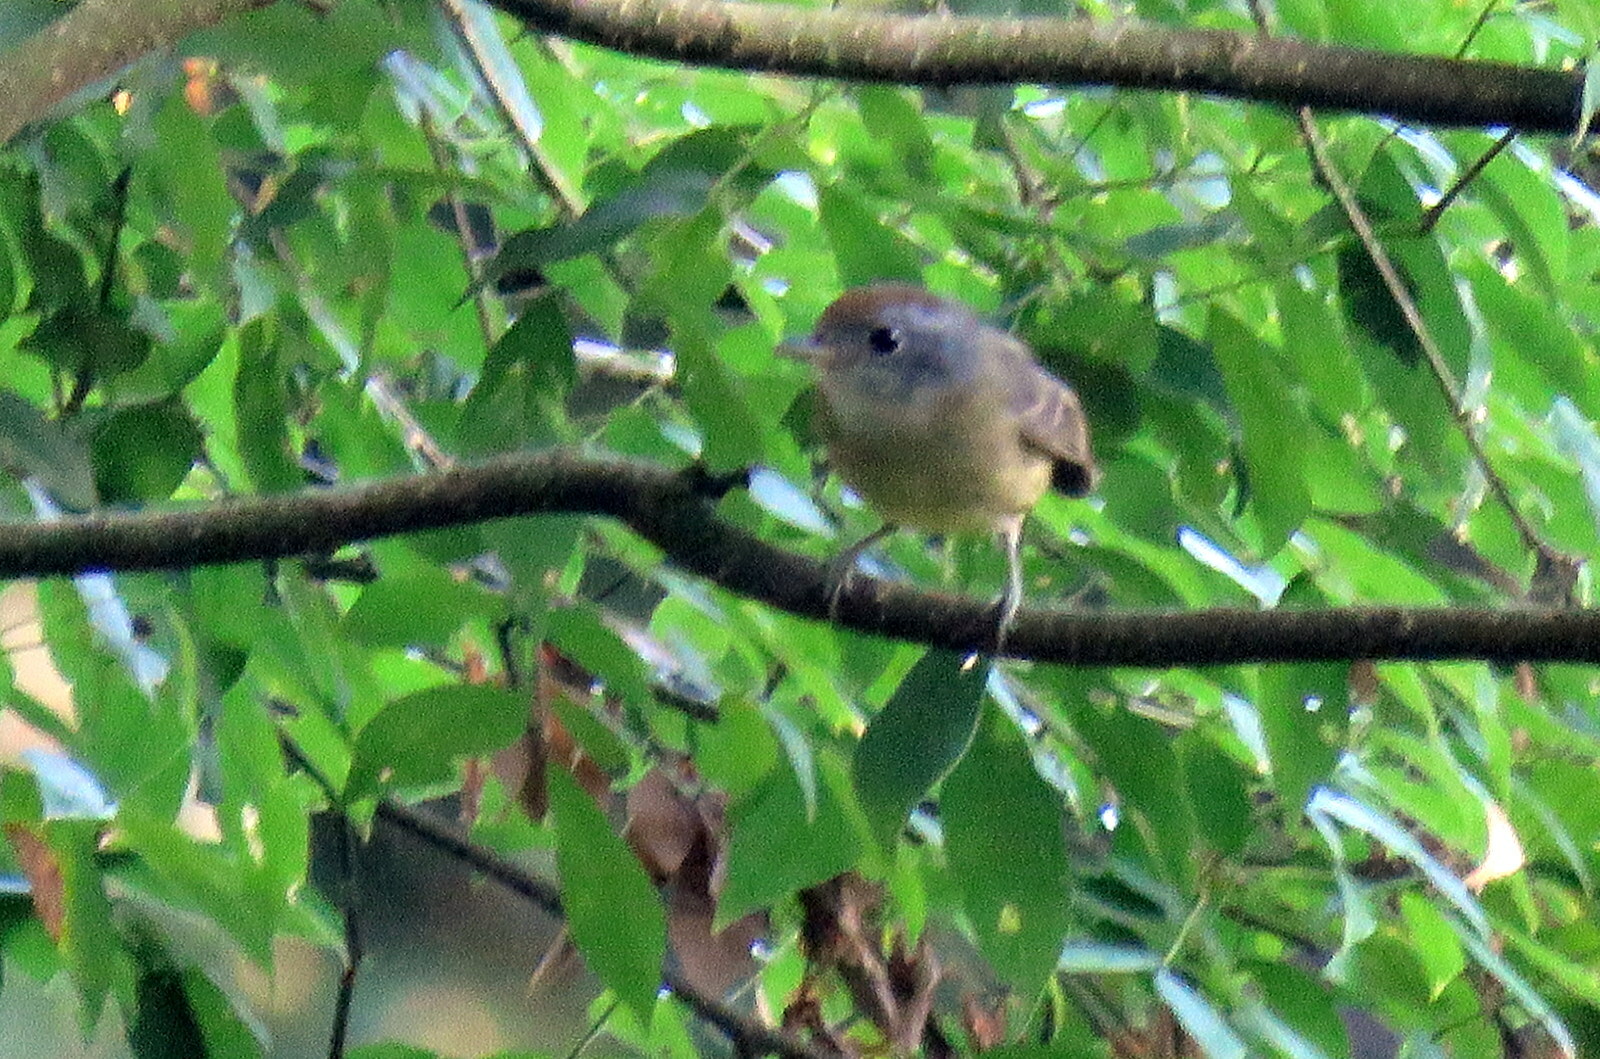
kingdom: Animalia
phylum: Chordata
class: Aves
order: Passeriformes
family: Vireonidae
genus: Hylophilus
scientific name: Hylophilus poicilotis
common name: Rufous-crowned greenlet
